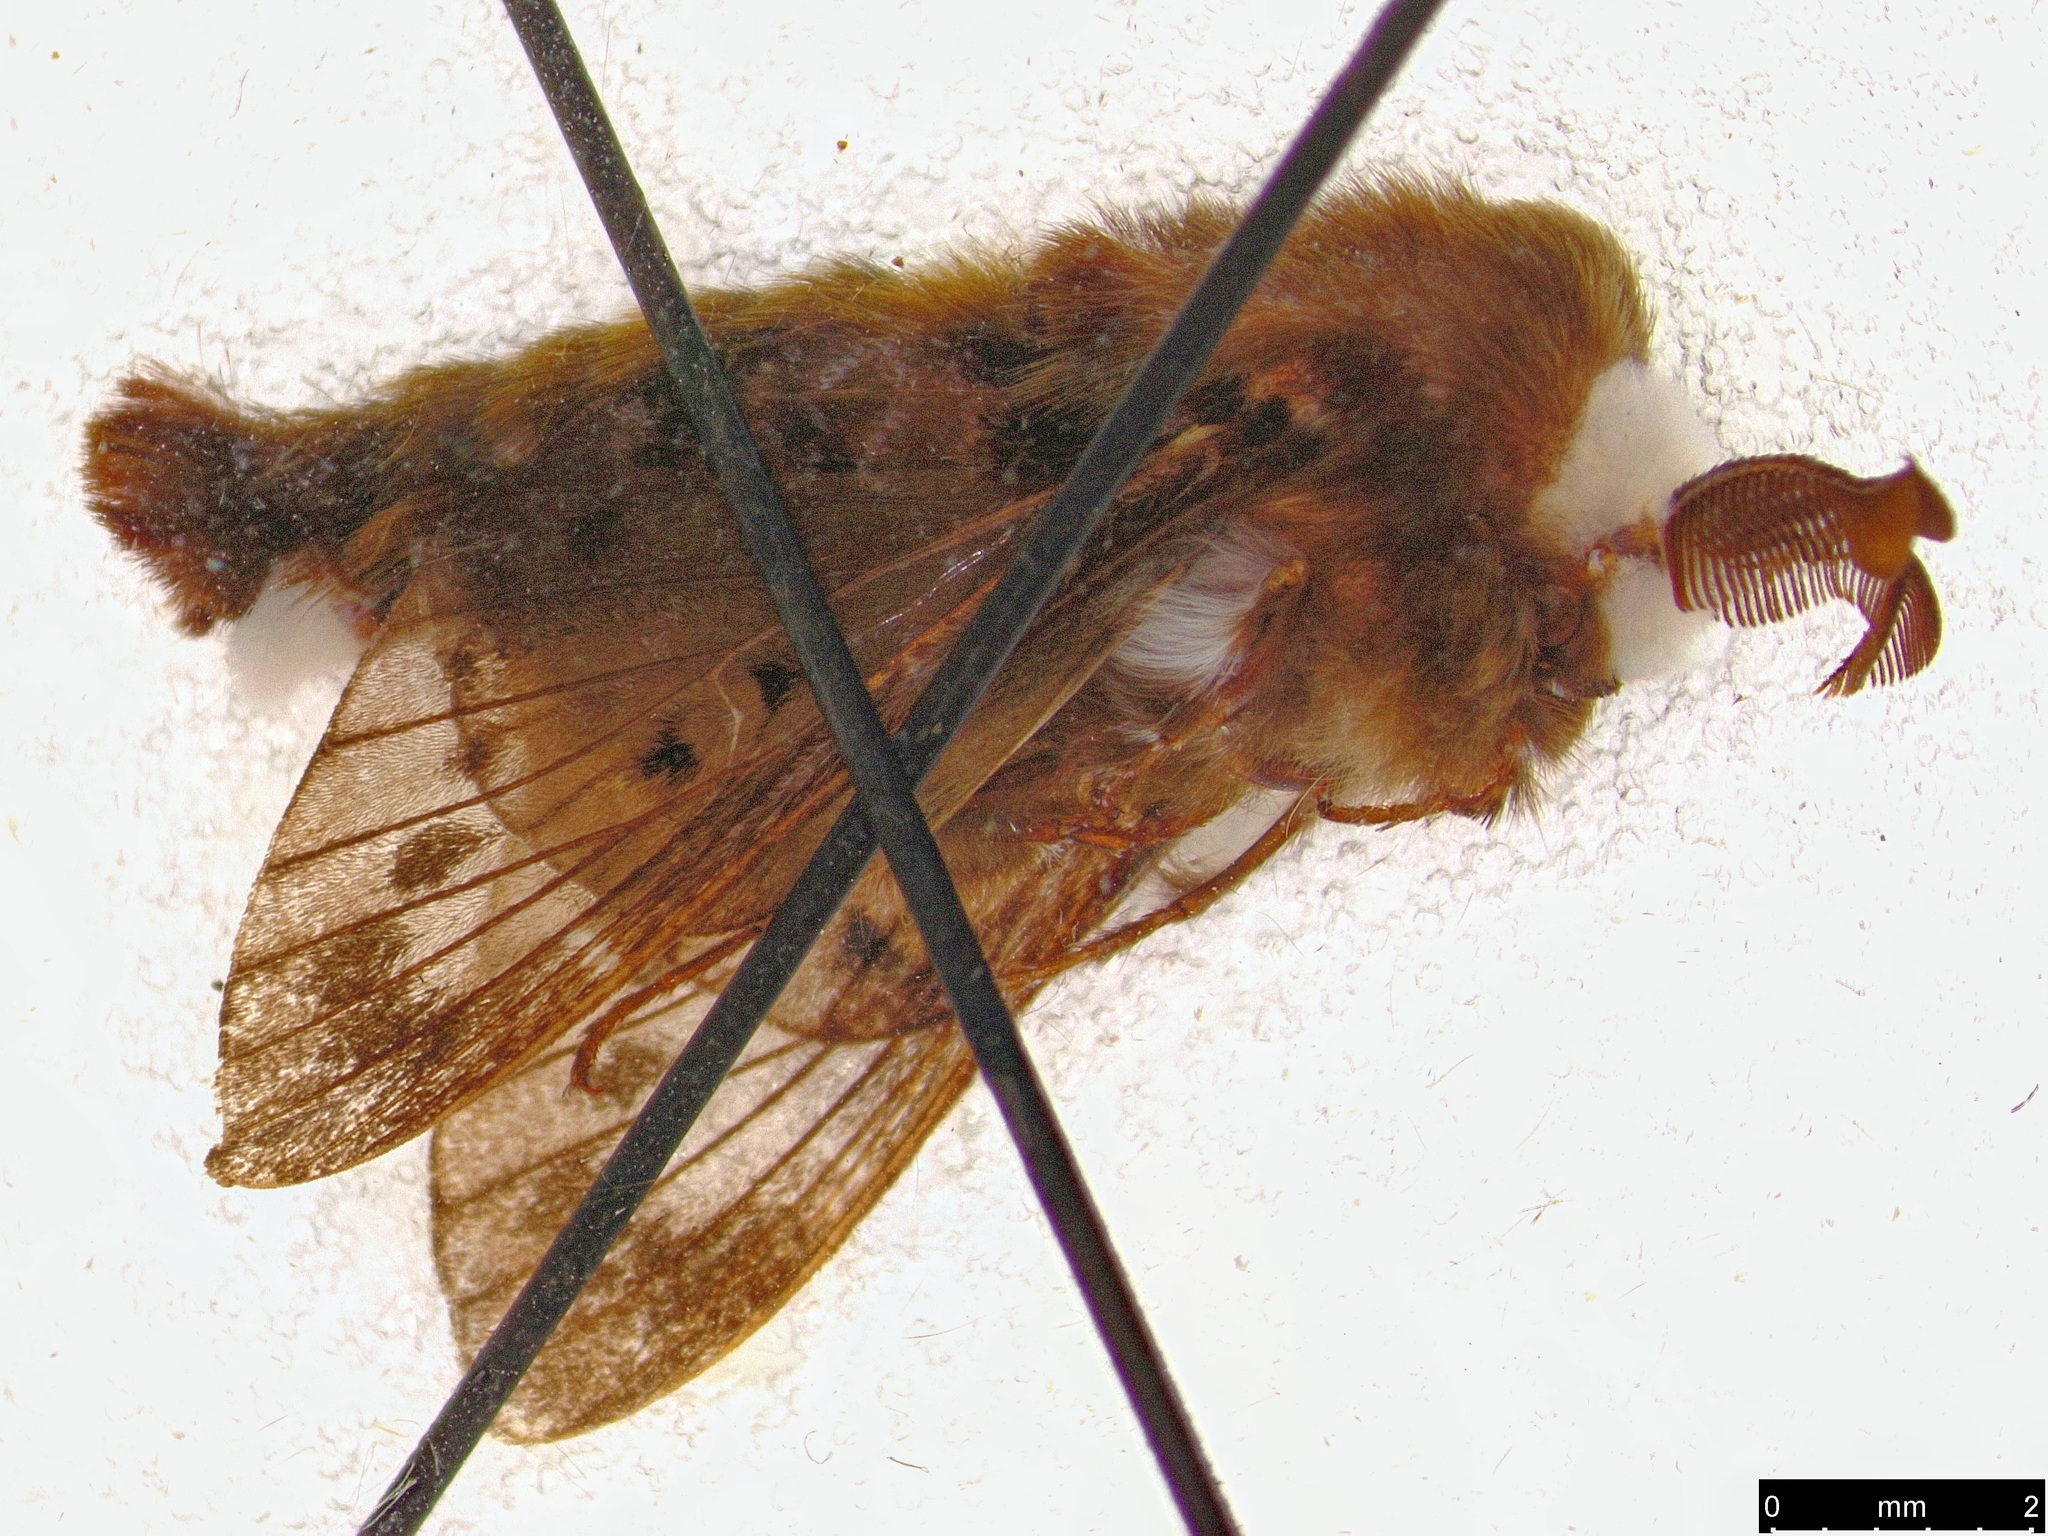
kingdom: Animalia
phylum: Arthropoda
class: Insecta
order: Lepidoptera
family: Lasiocampidae
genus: Genduara
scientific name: Genduara punctigera
